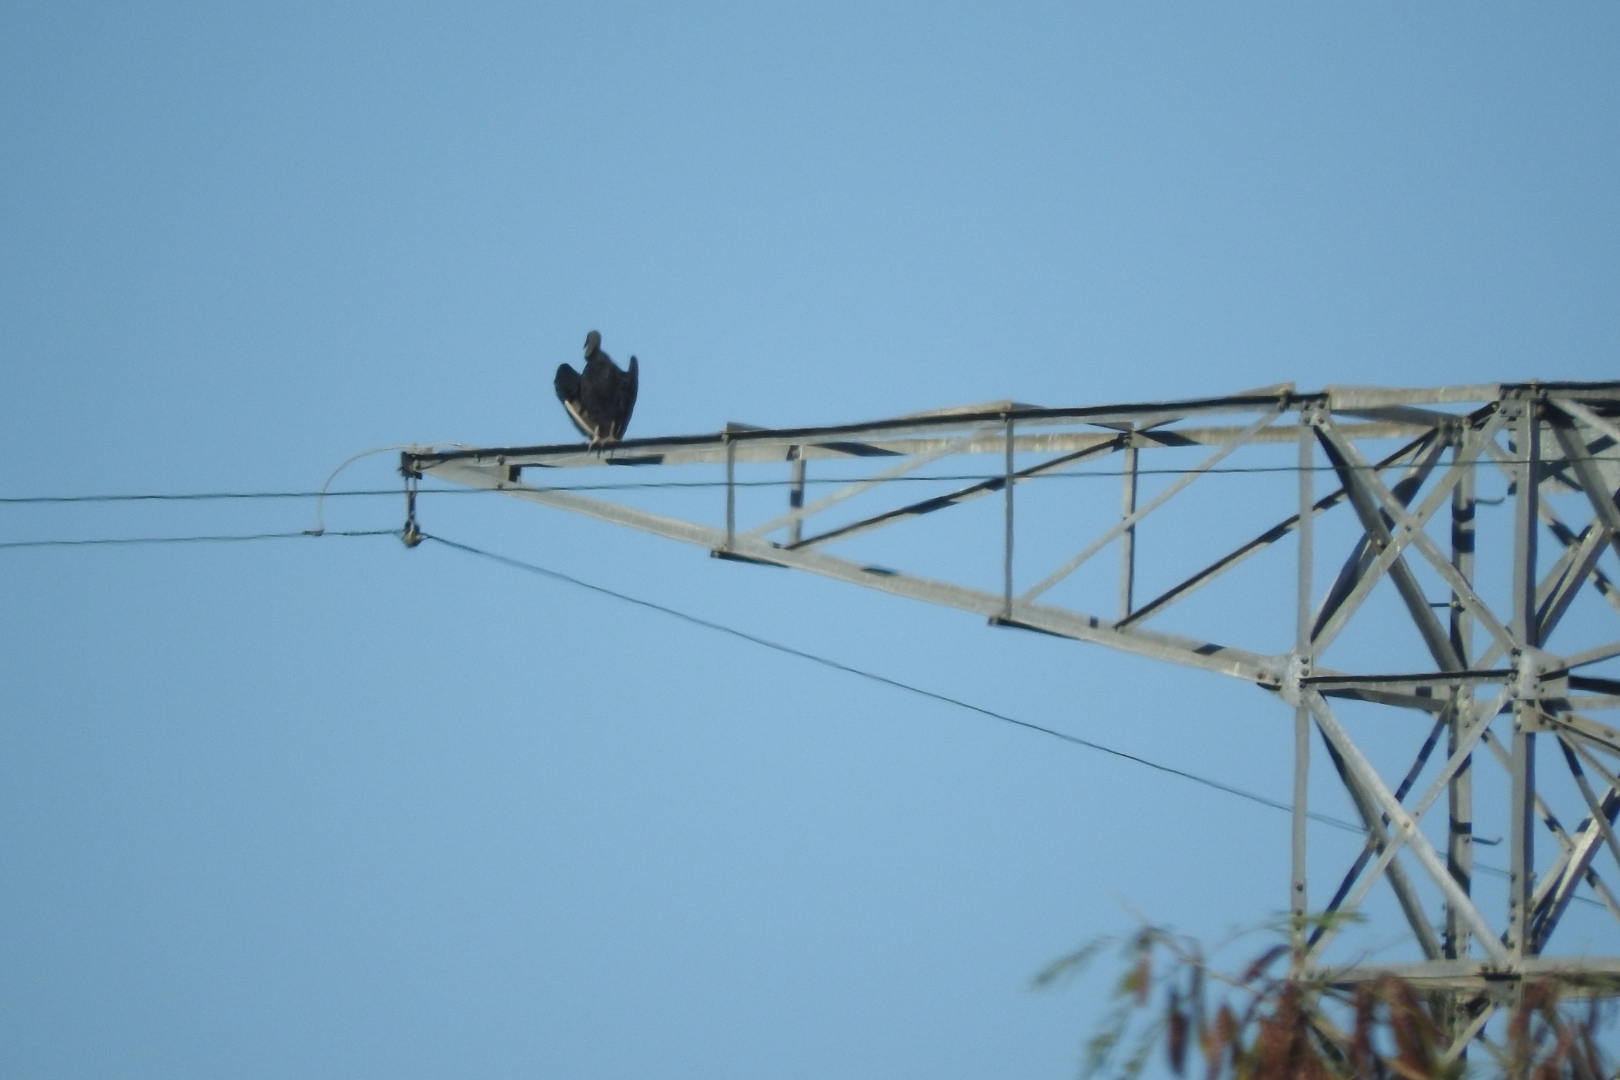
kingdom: Animalia
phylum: Chordata
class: Aves
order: Accipitriformes
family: Cathartidae
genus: Coragyps
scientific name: Coragyps atratus
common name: Black vulture
